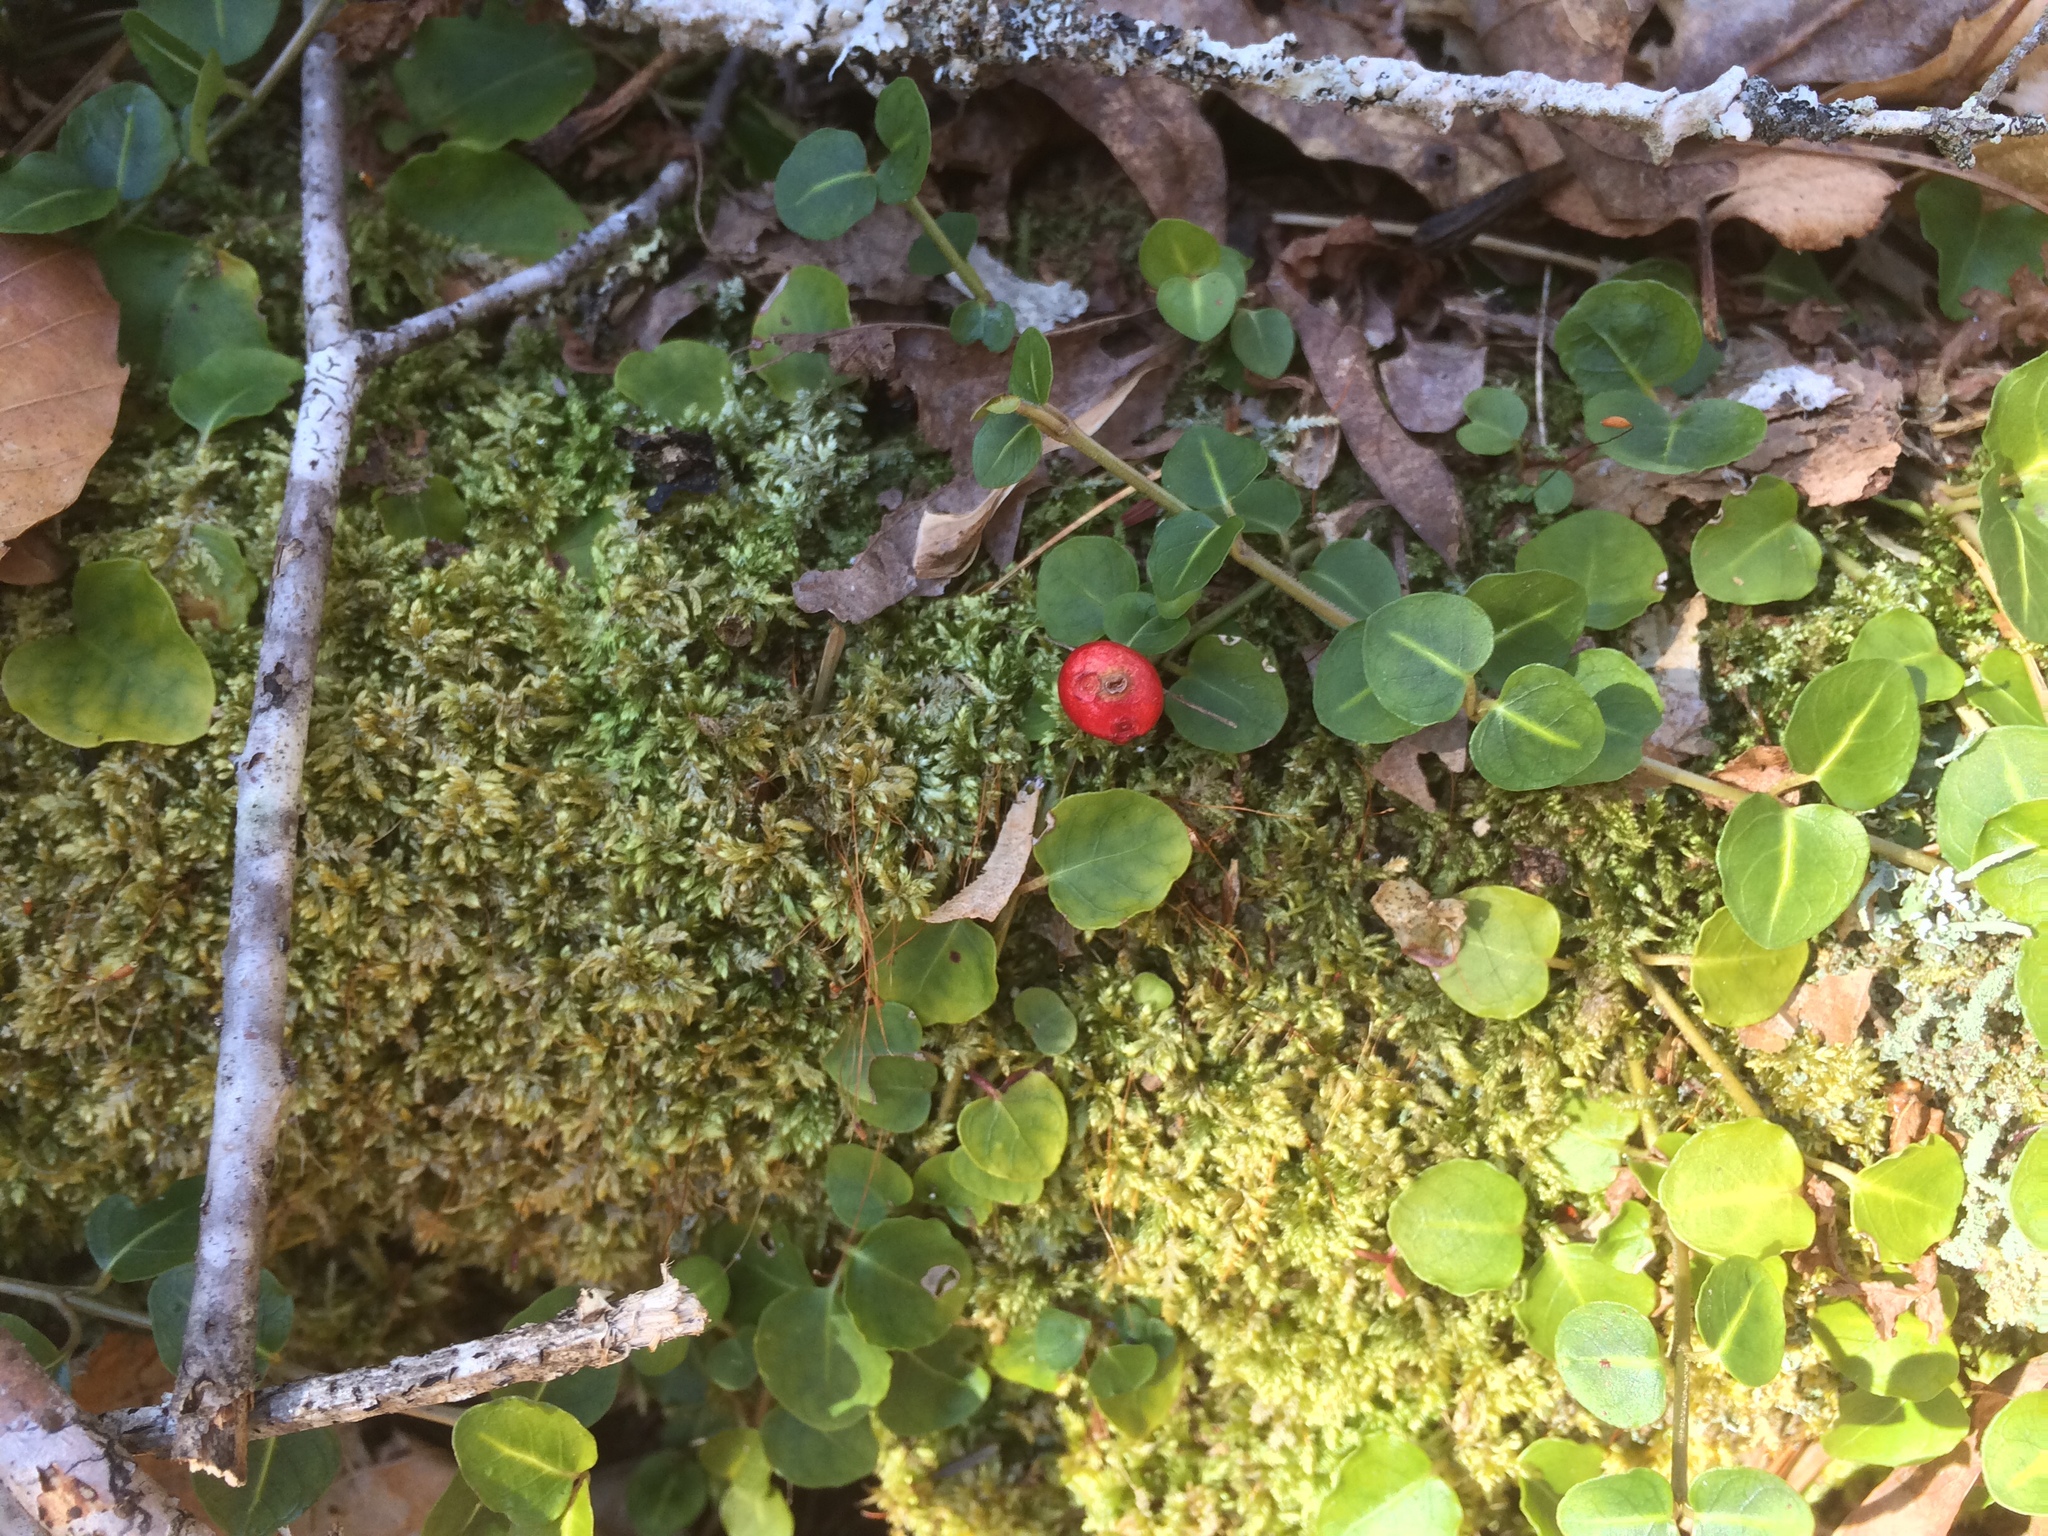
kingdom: Plantae
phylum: Tracheophyta
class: Magnoliopsida
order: Gentianales
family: Rubiaceae
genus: Mitchella
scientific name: Mitchella repens
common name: Partridge-berry
